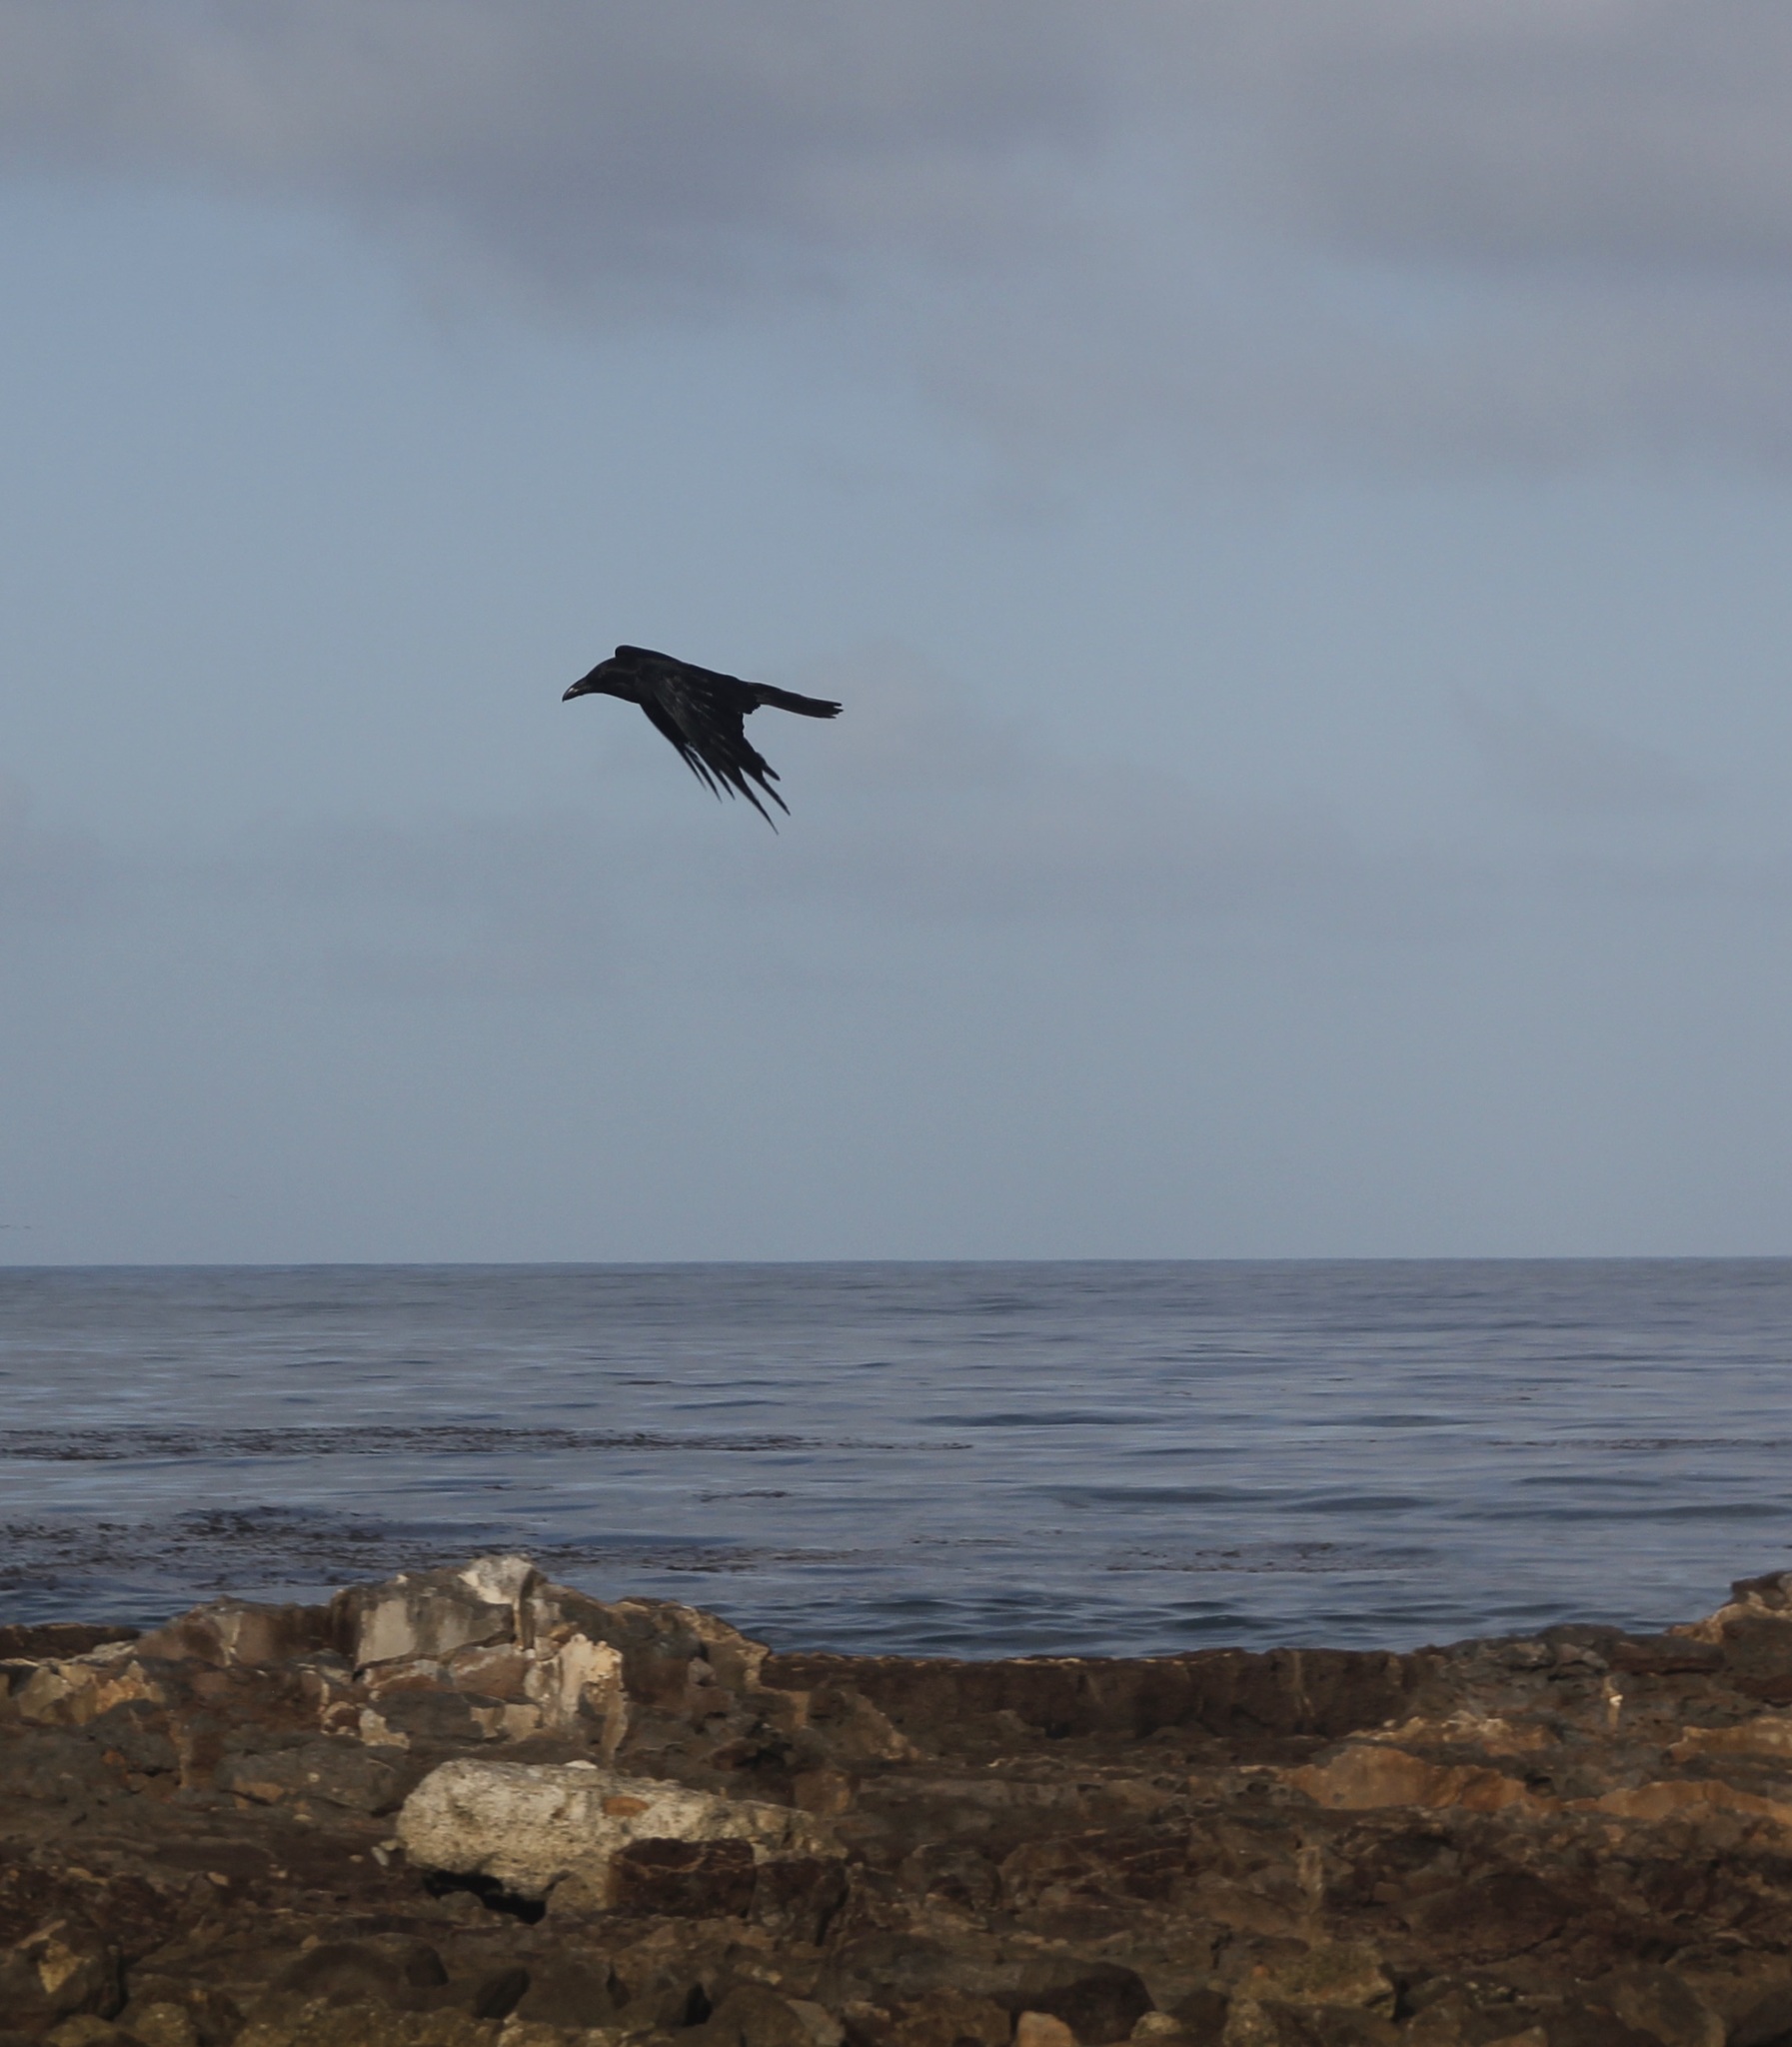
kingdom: Animalia
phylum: Chordata
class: Aves
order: Passeriformes
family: Corvidae
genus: Corvus
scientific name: Corvus corax
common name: Common raven
